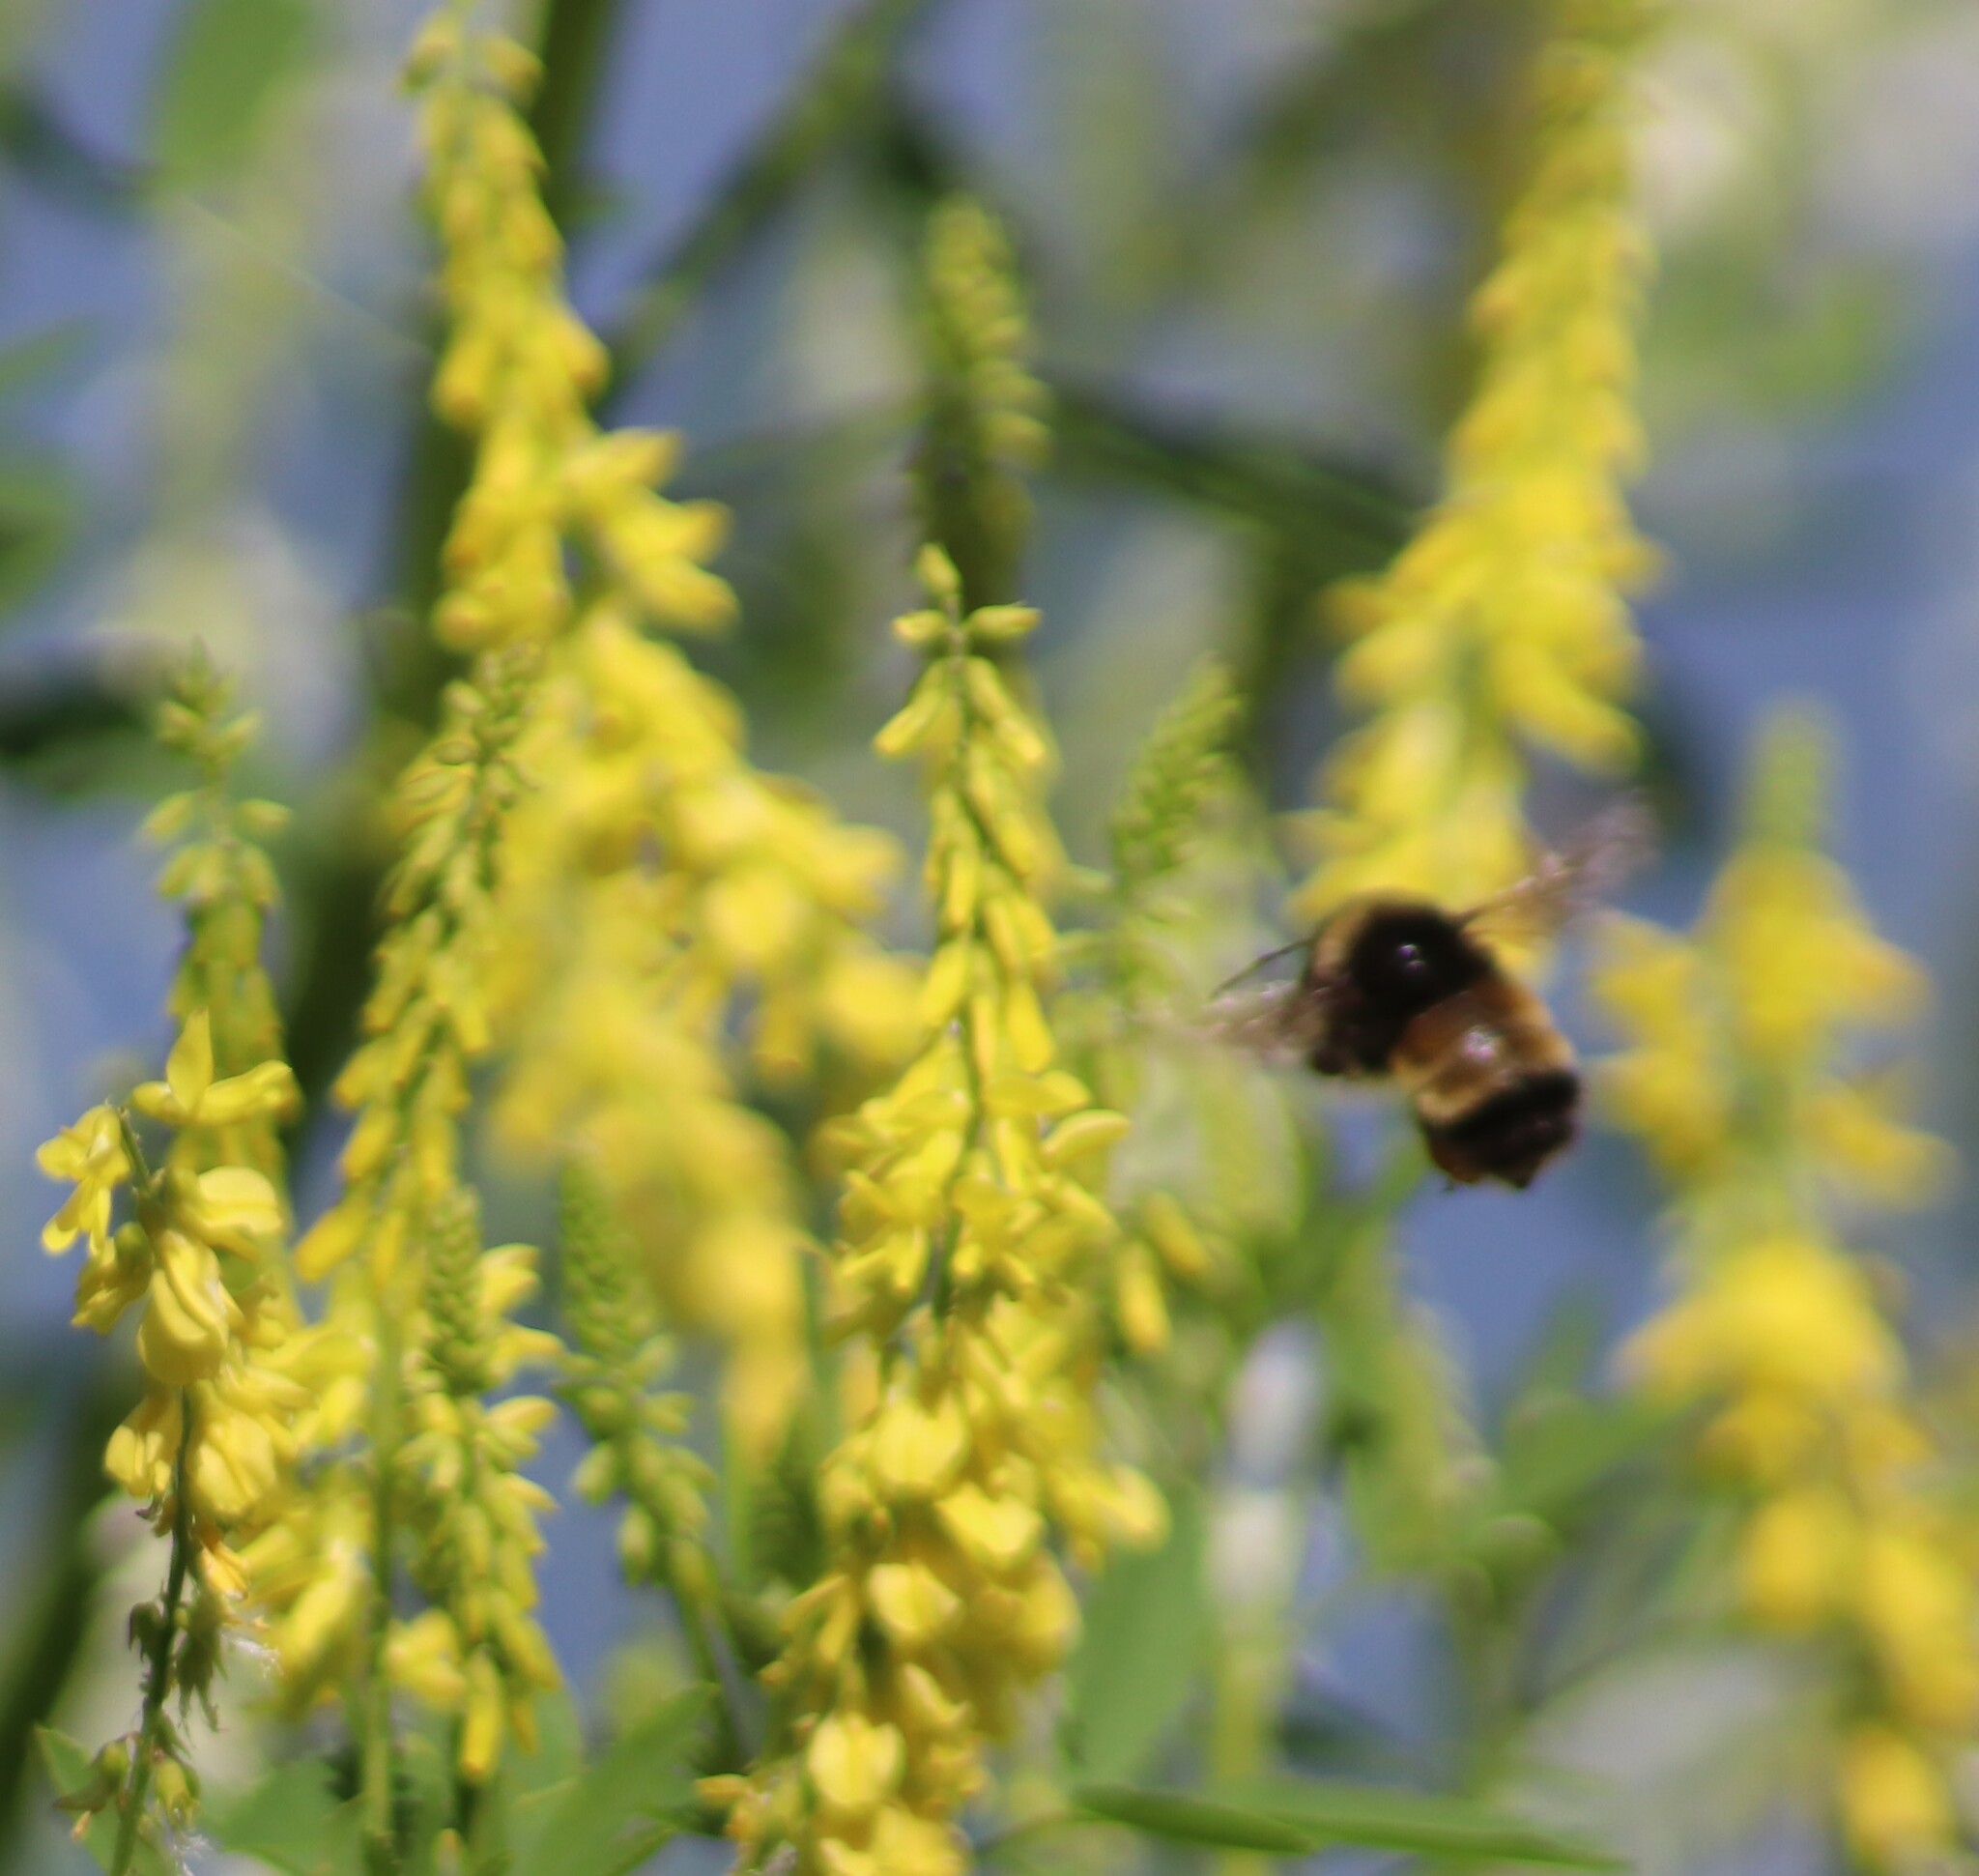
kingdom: Animalia
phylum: Arthropoda
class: Insecta
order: Hymenoptera
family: Apidae
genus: Bombus
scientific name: Bombus terricola
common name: Yellow-banded bumble bee
